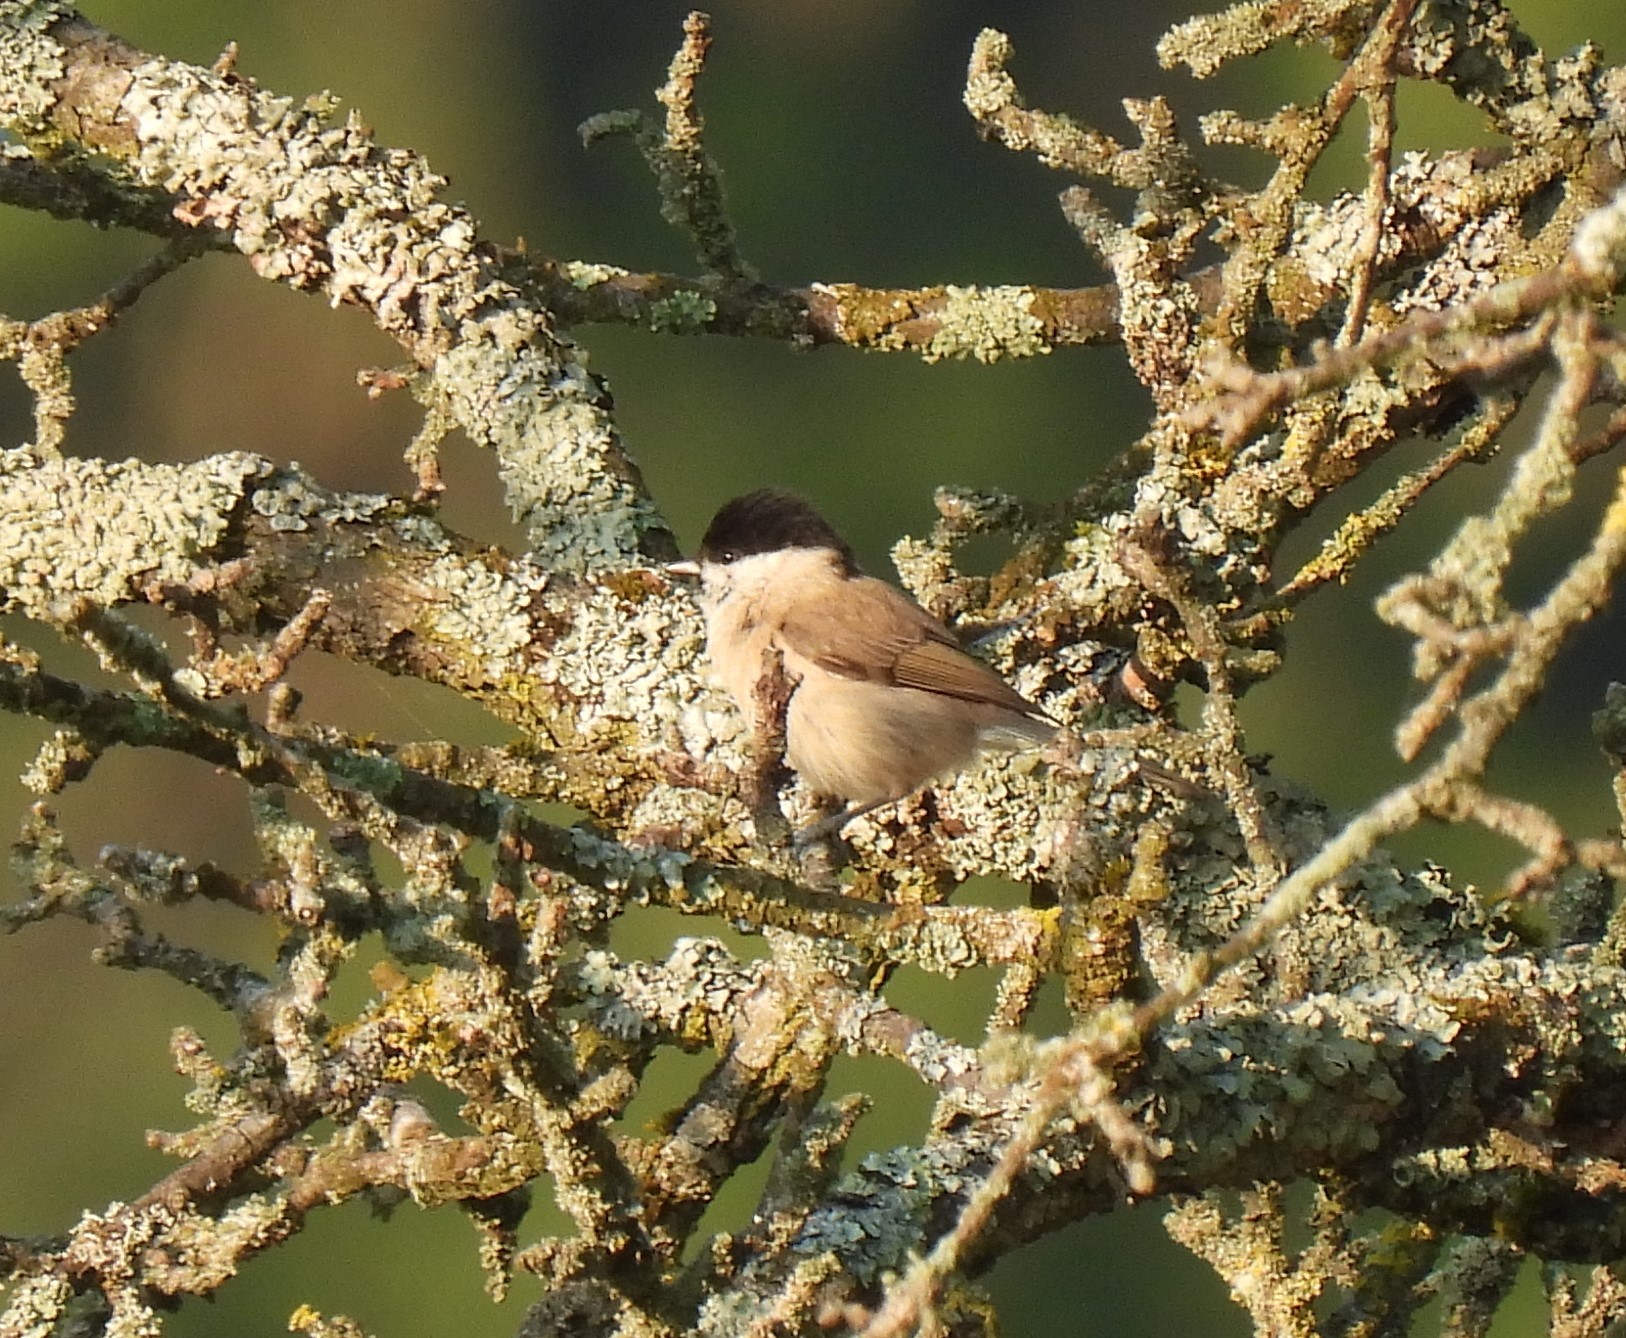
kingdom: Animalia
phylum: Chordata
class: Aves
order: Passeriformes
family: Paridae
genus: Poecile
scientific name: Poecile palustris
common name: Marsh tit
